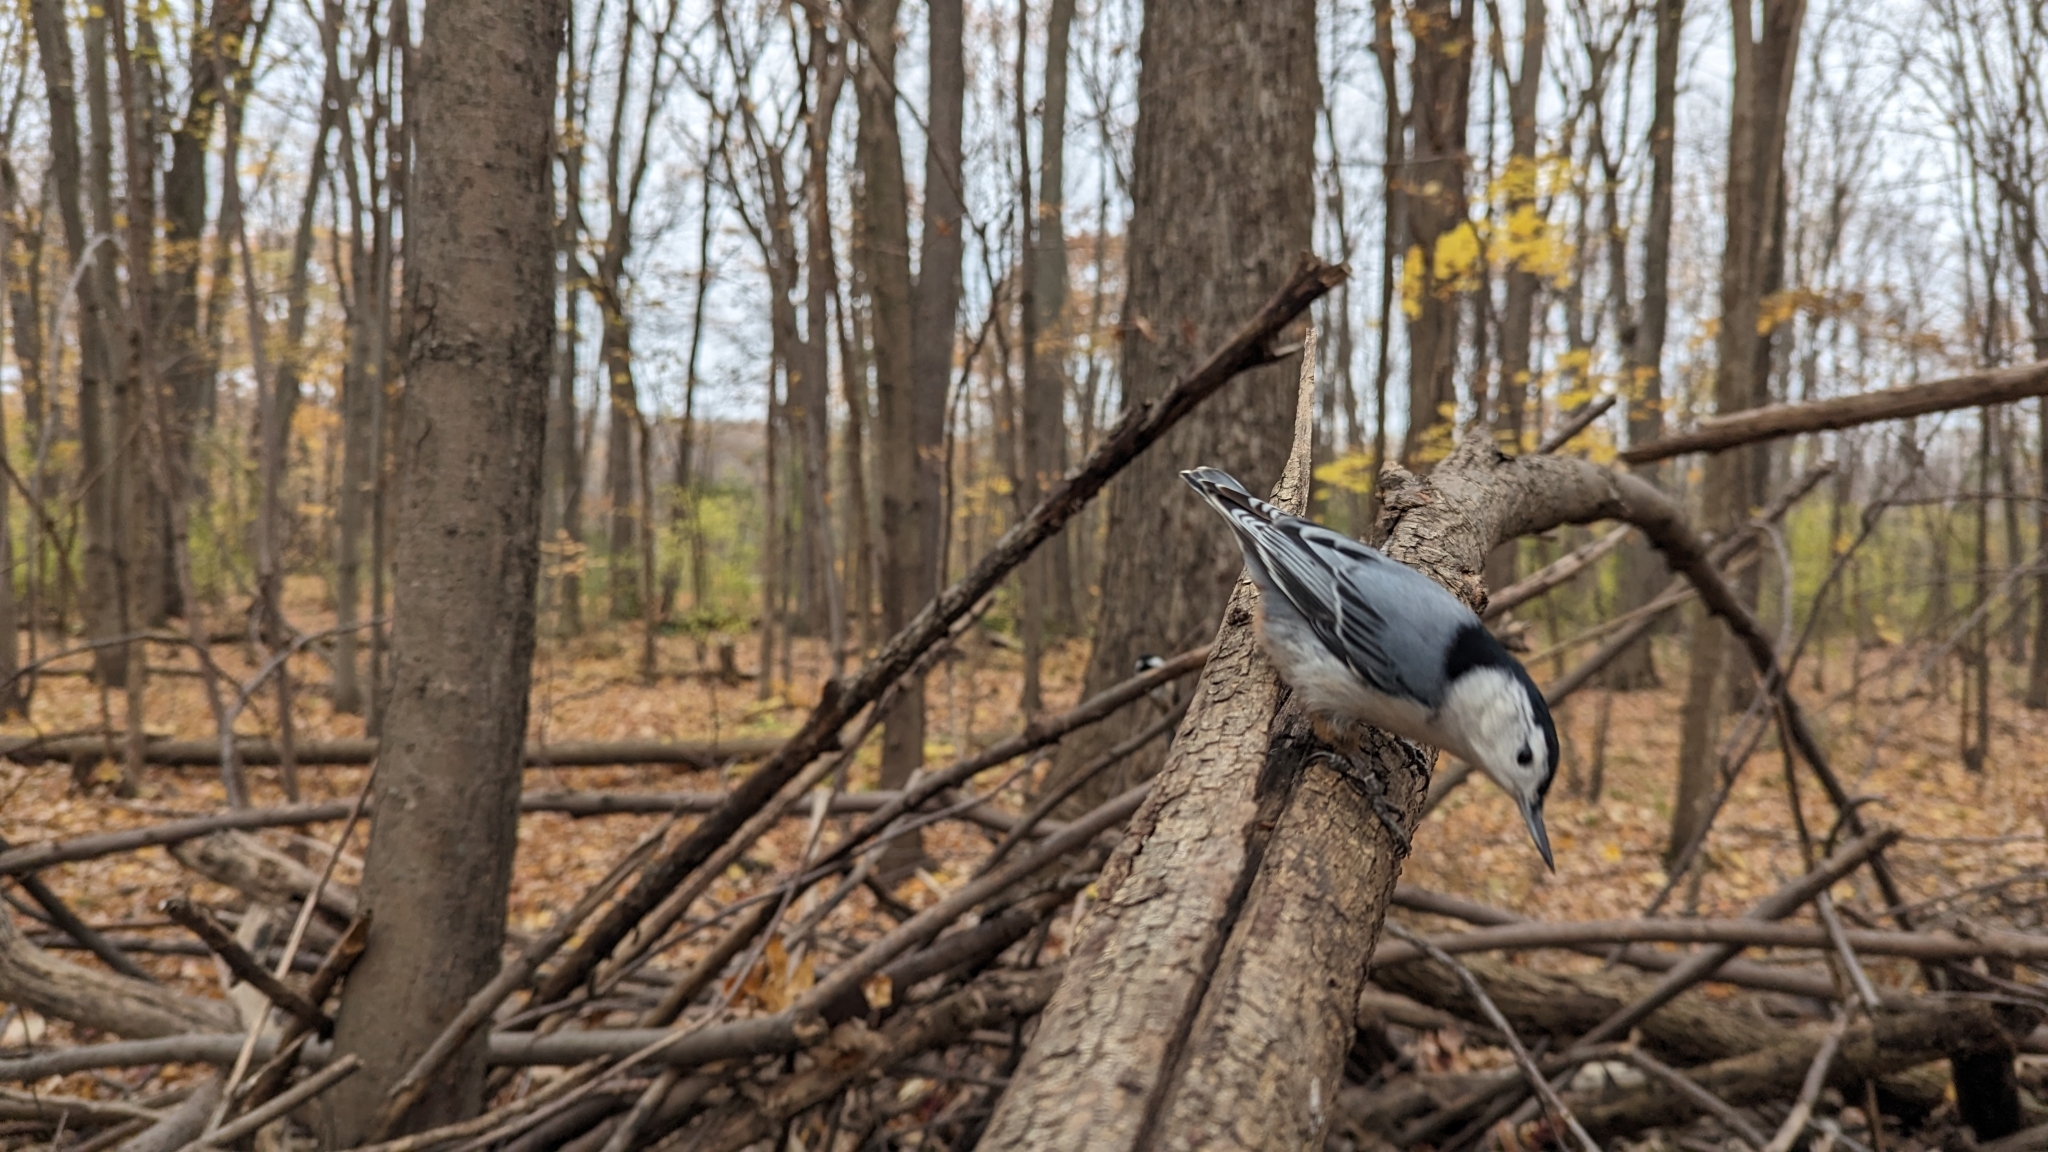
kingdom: Animalia
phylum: Chordata
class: Aves
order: Passeriformes
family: Sittidae
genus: Sitta
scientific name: Sitta carolinensis
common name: White-breasted nuthatch
